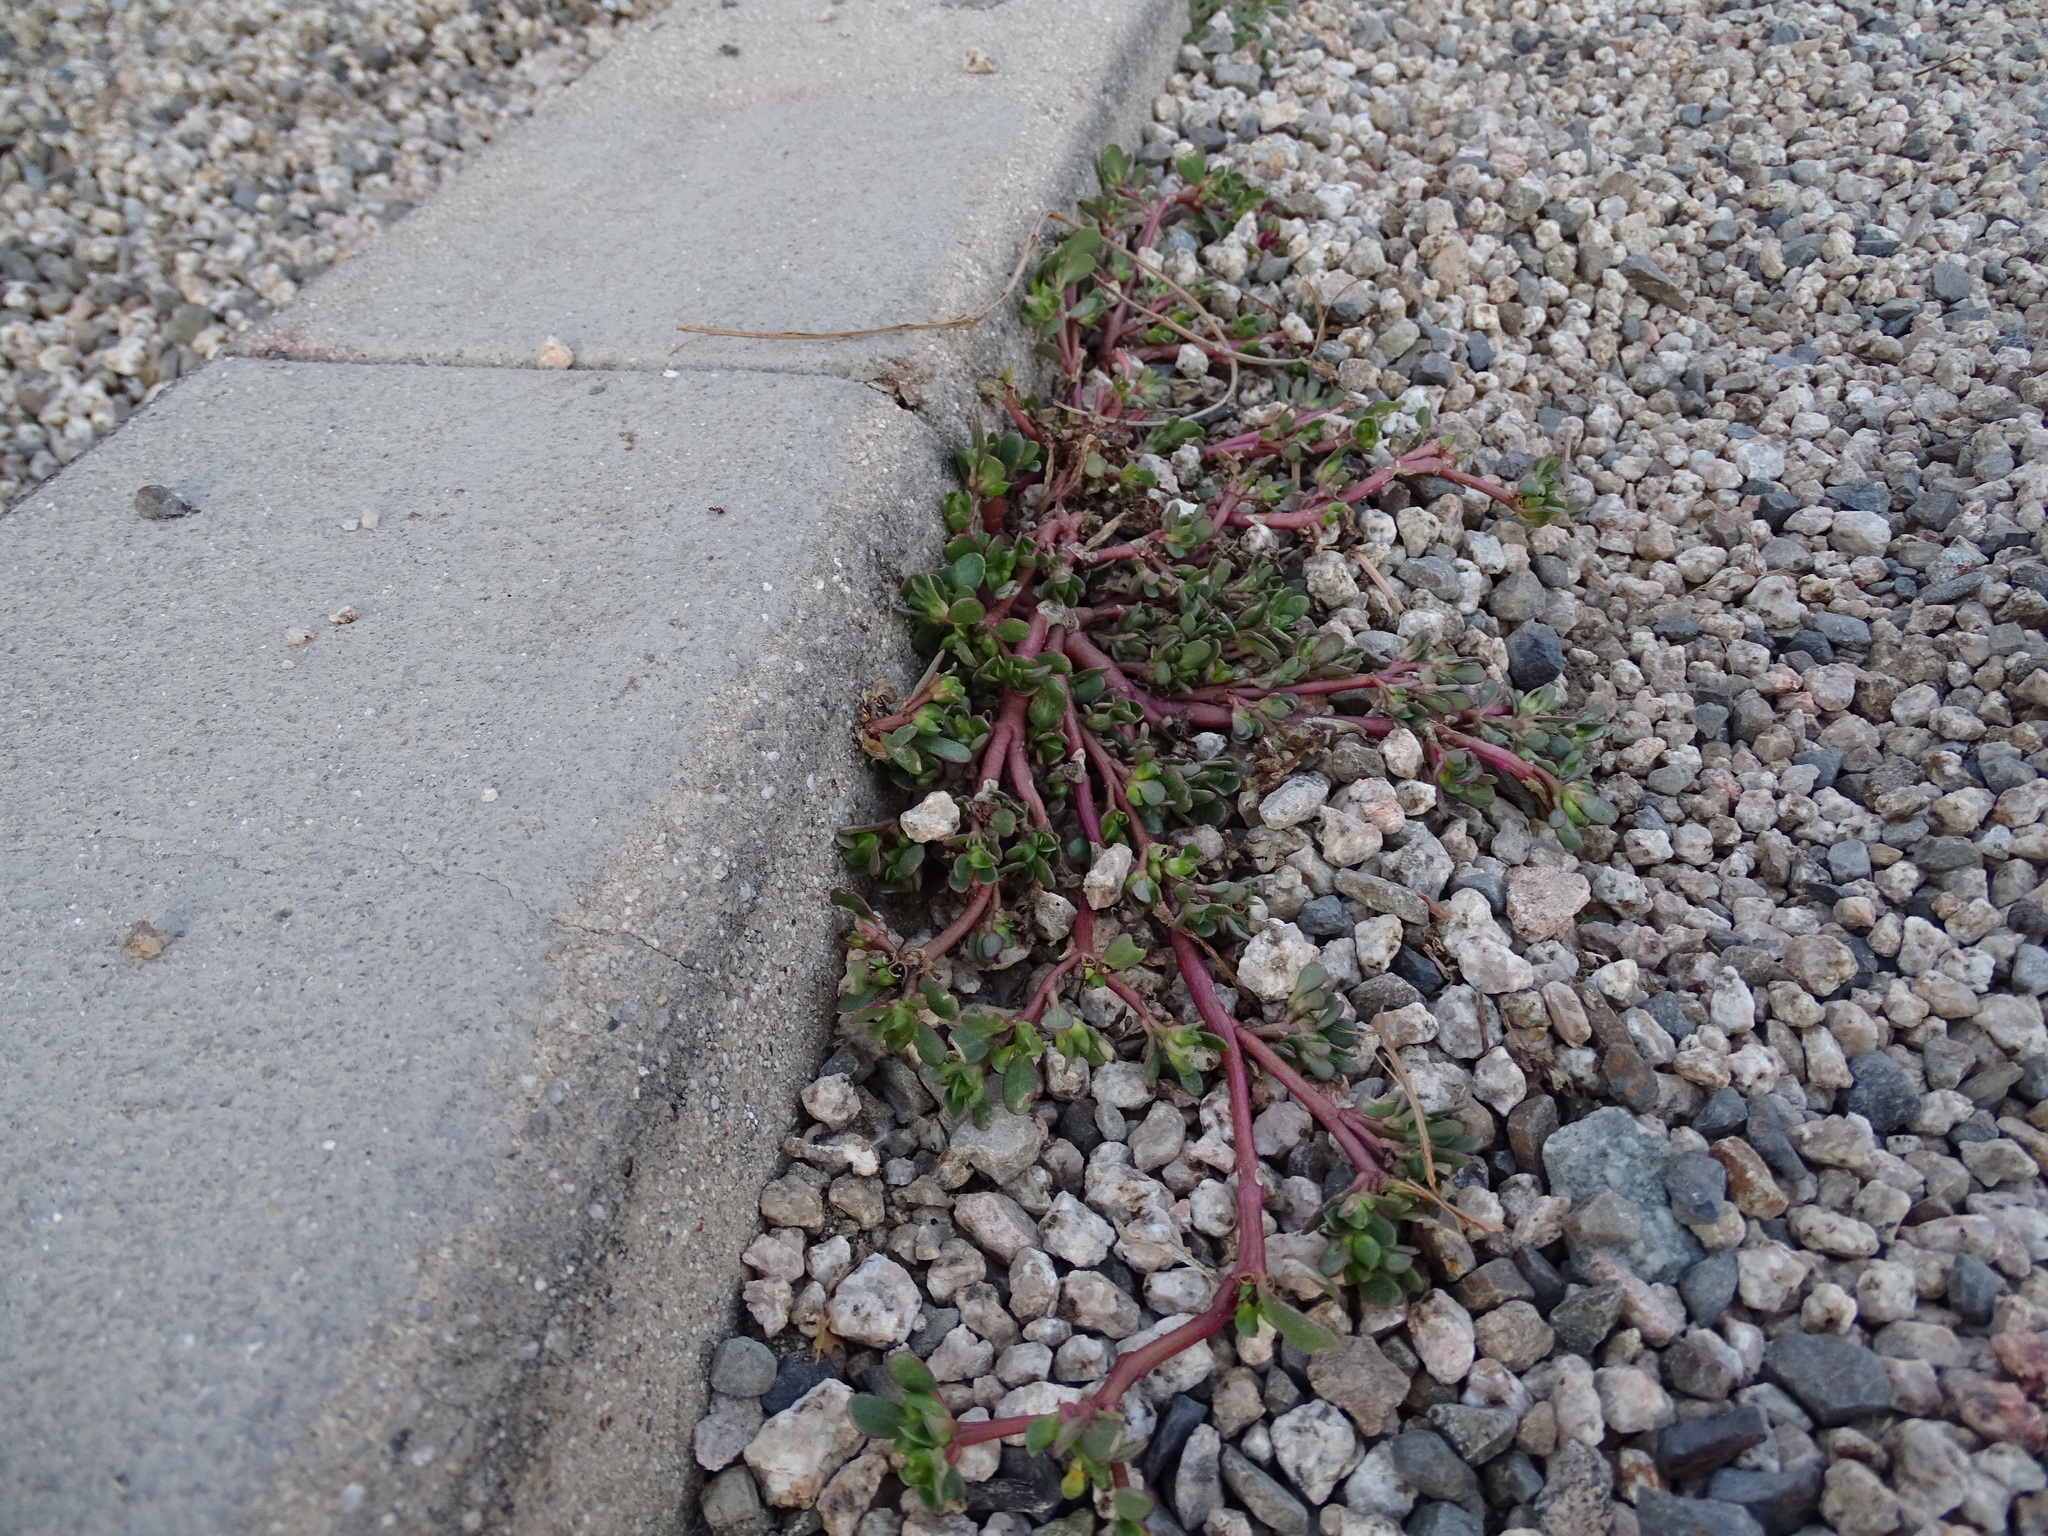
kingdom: Plantae
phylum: Tracheophyta
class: Magnoliopsida
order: Caryophyllales
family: Portulacaceae
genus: Portulaca
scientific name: Portulaca oleracea
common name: Common purslane
